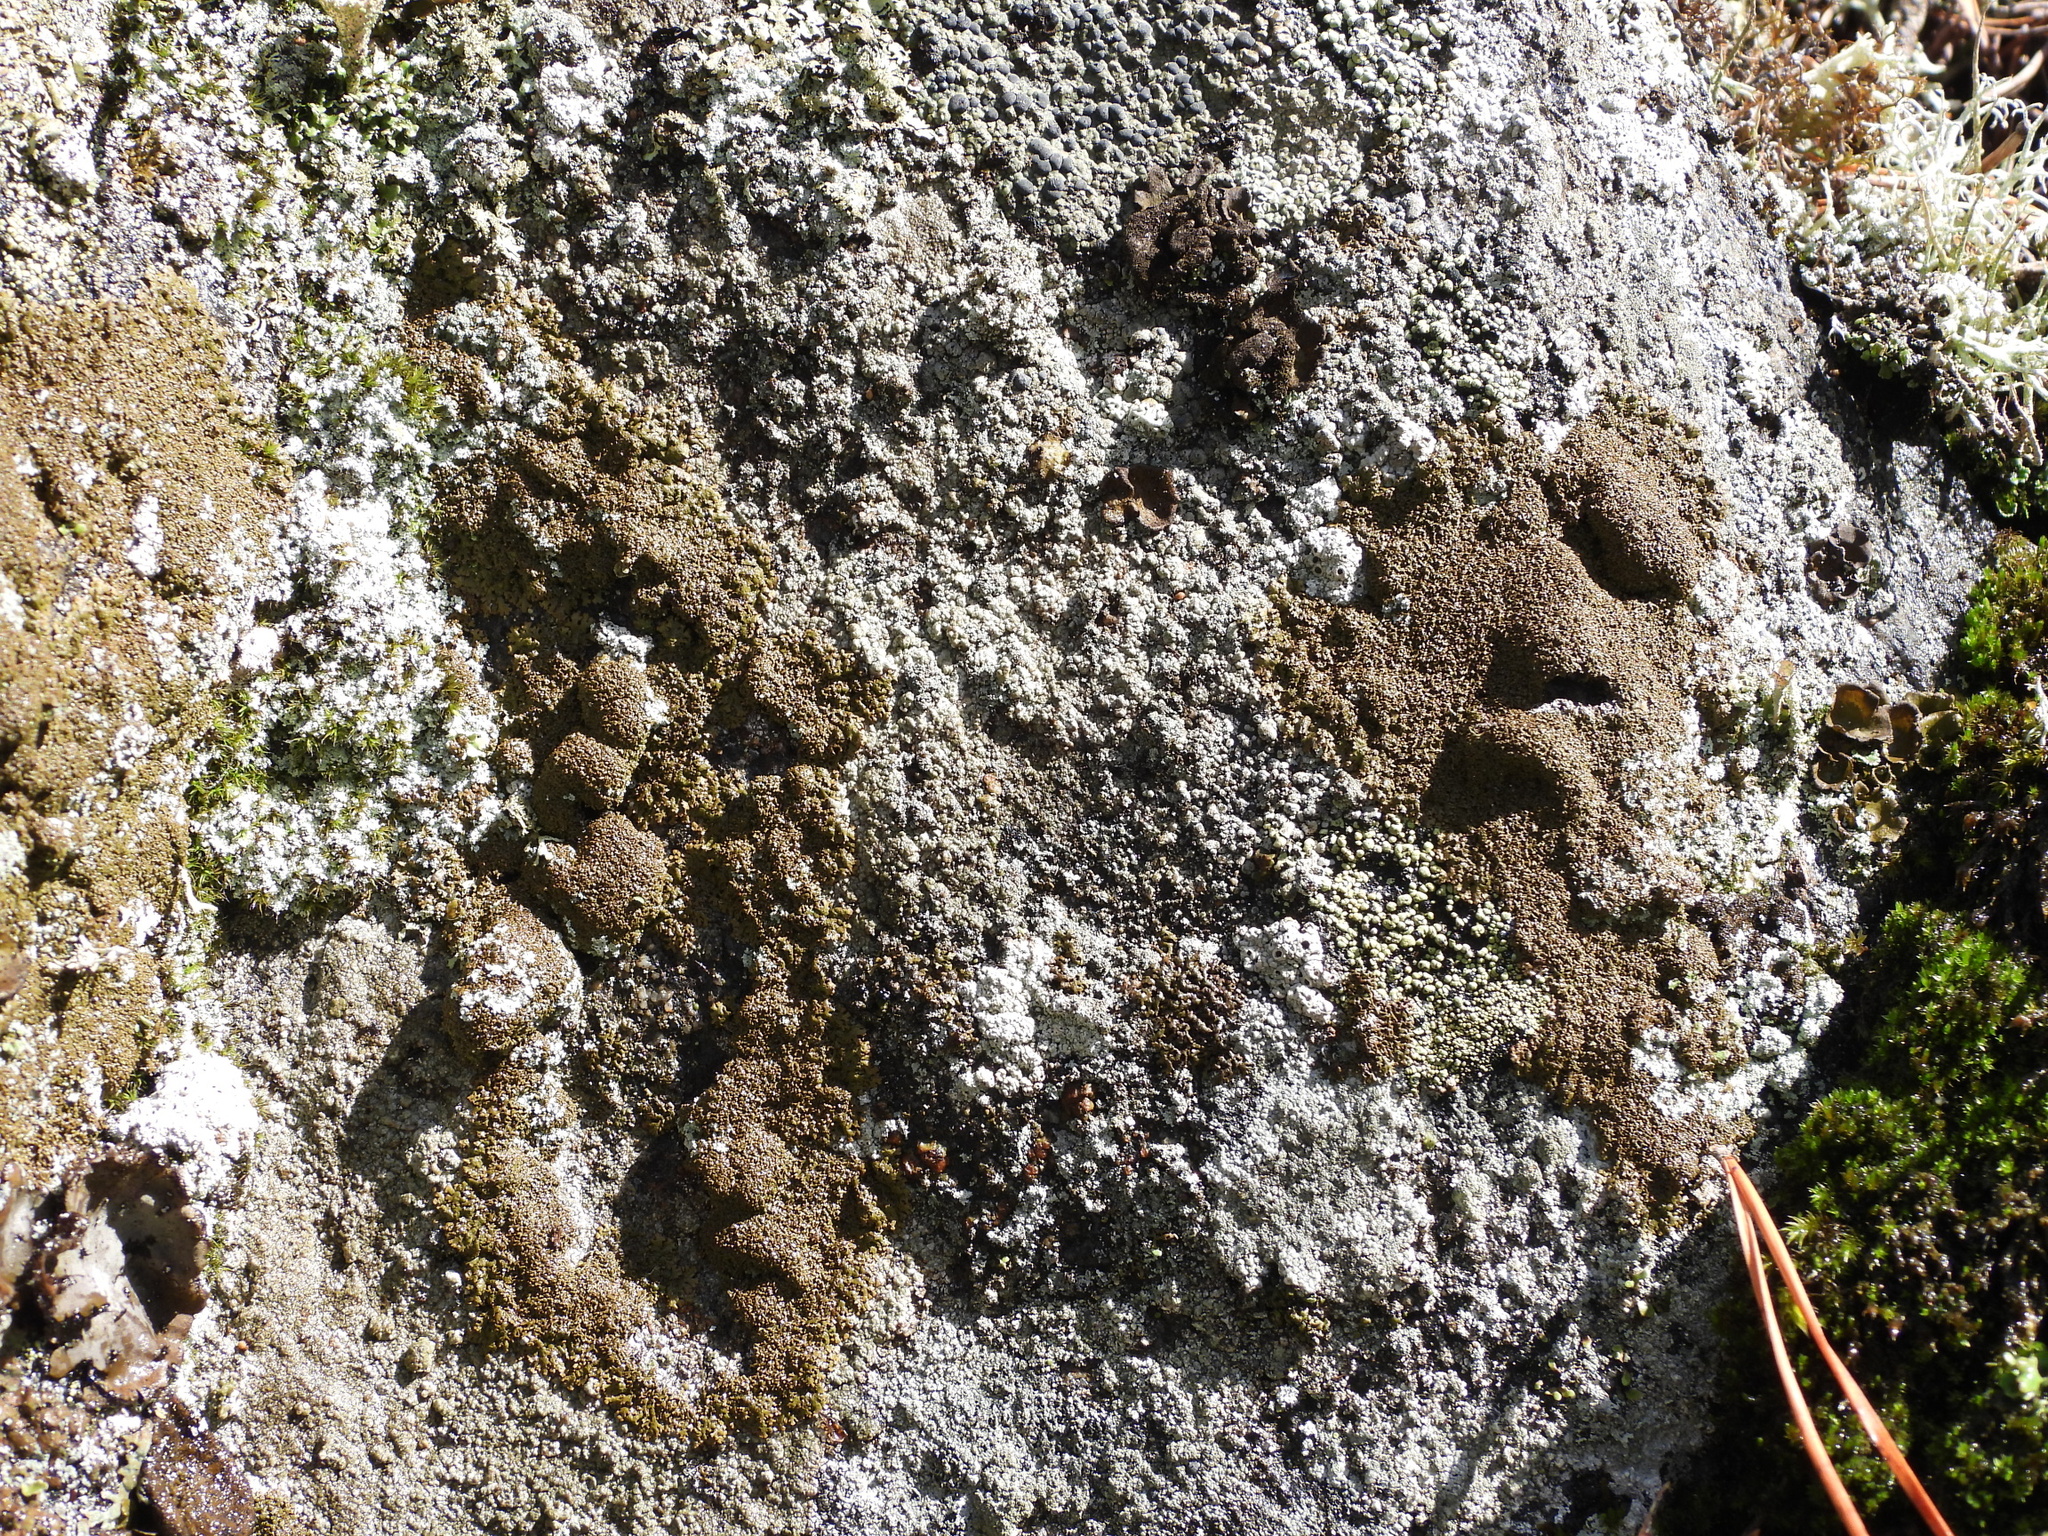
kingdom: Fungi
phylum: Ascomycota
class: Lecanoromycetes
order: Lecanorales
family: Parmeliaceae
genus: Montanelia
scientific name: Montanelia panniformis
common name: Shingled camouflage lichen
